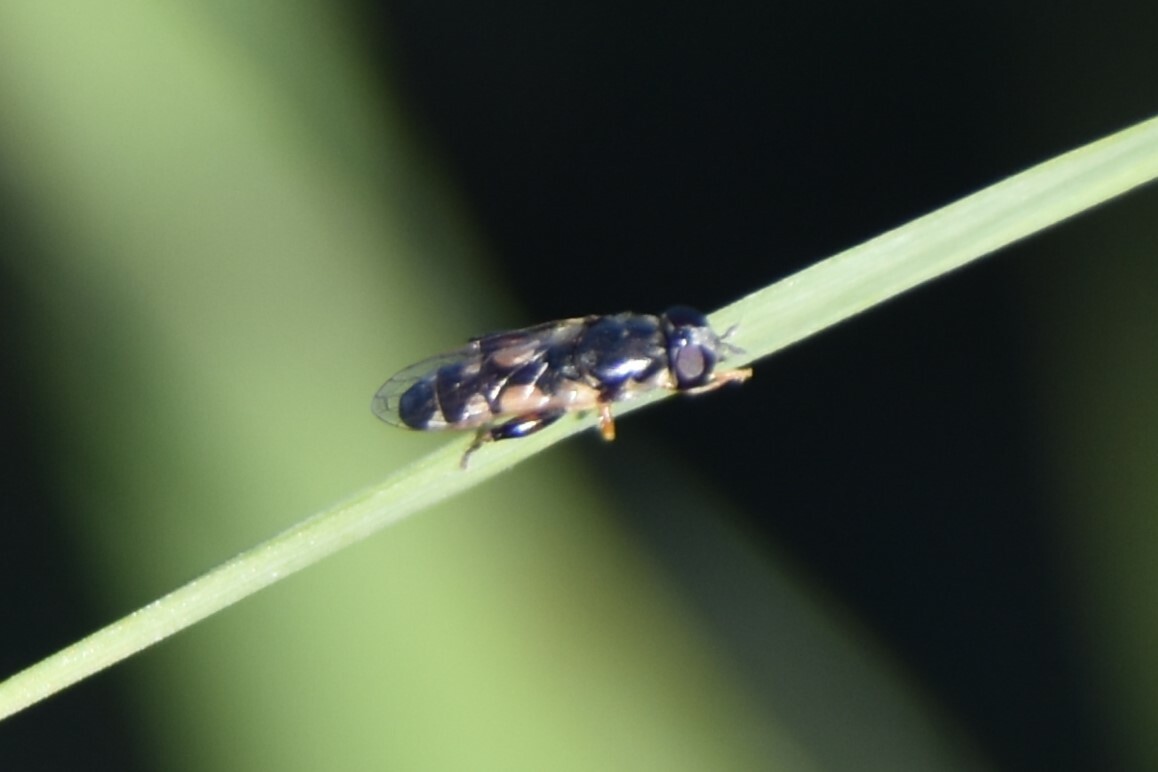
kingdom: Animalia
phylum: Arthropoda
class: Insecta
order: Diptera
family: Syrphidae
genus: Syritta
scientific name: Syritta flaviventris
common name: Syrphid fly
